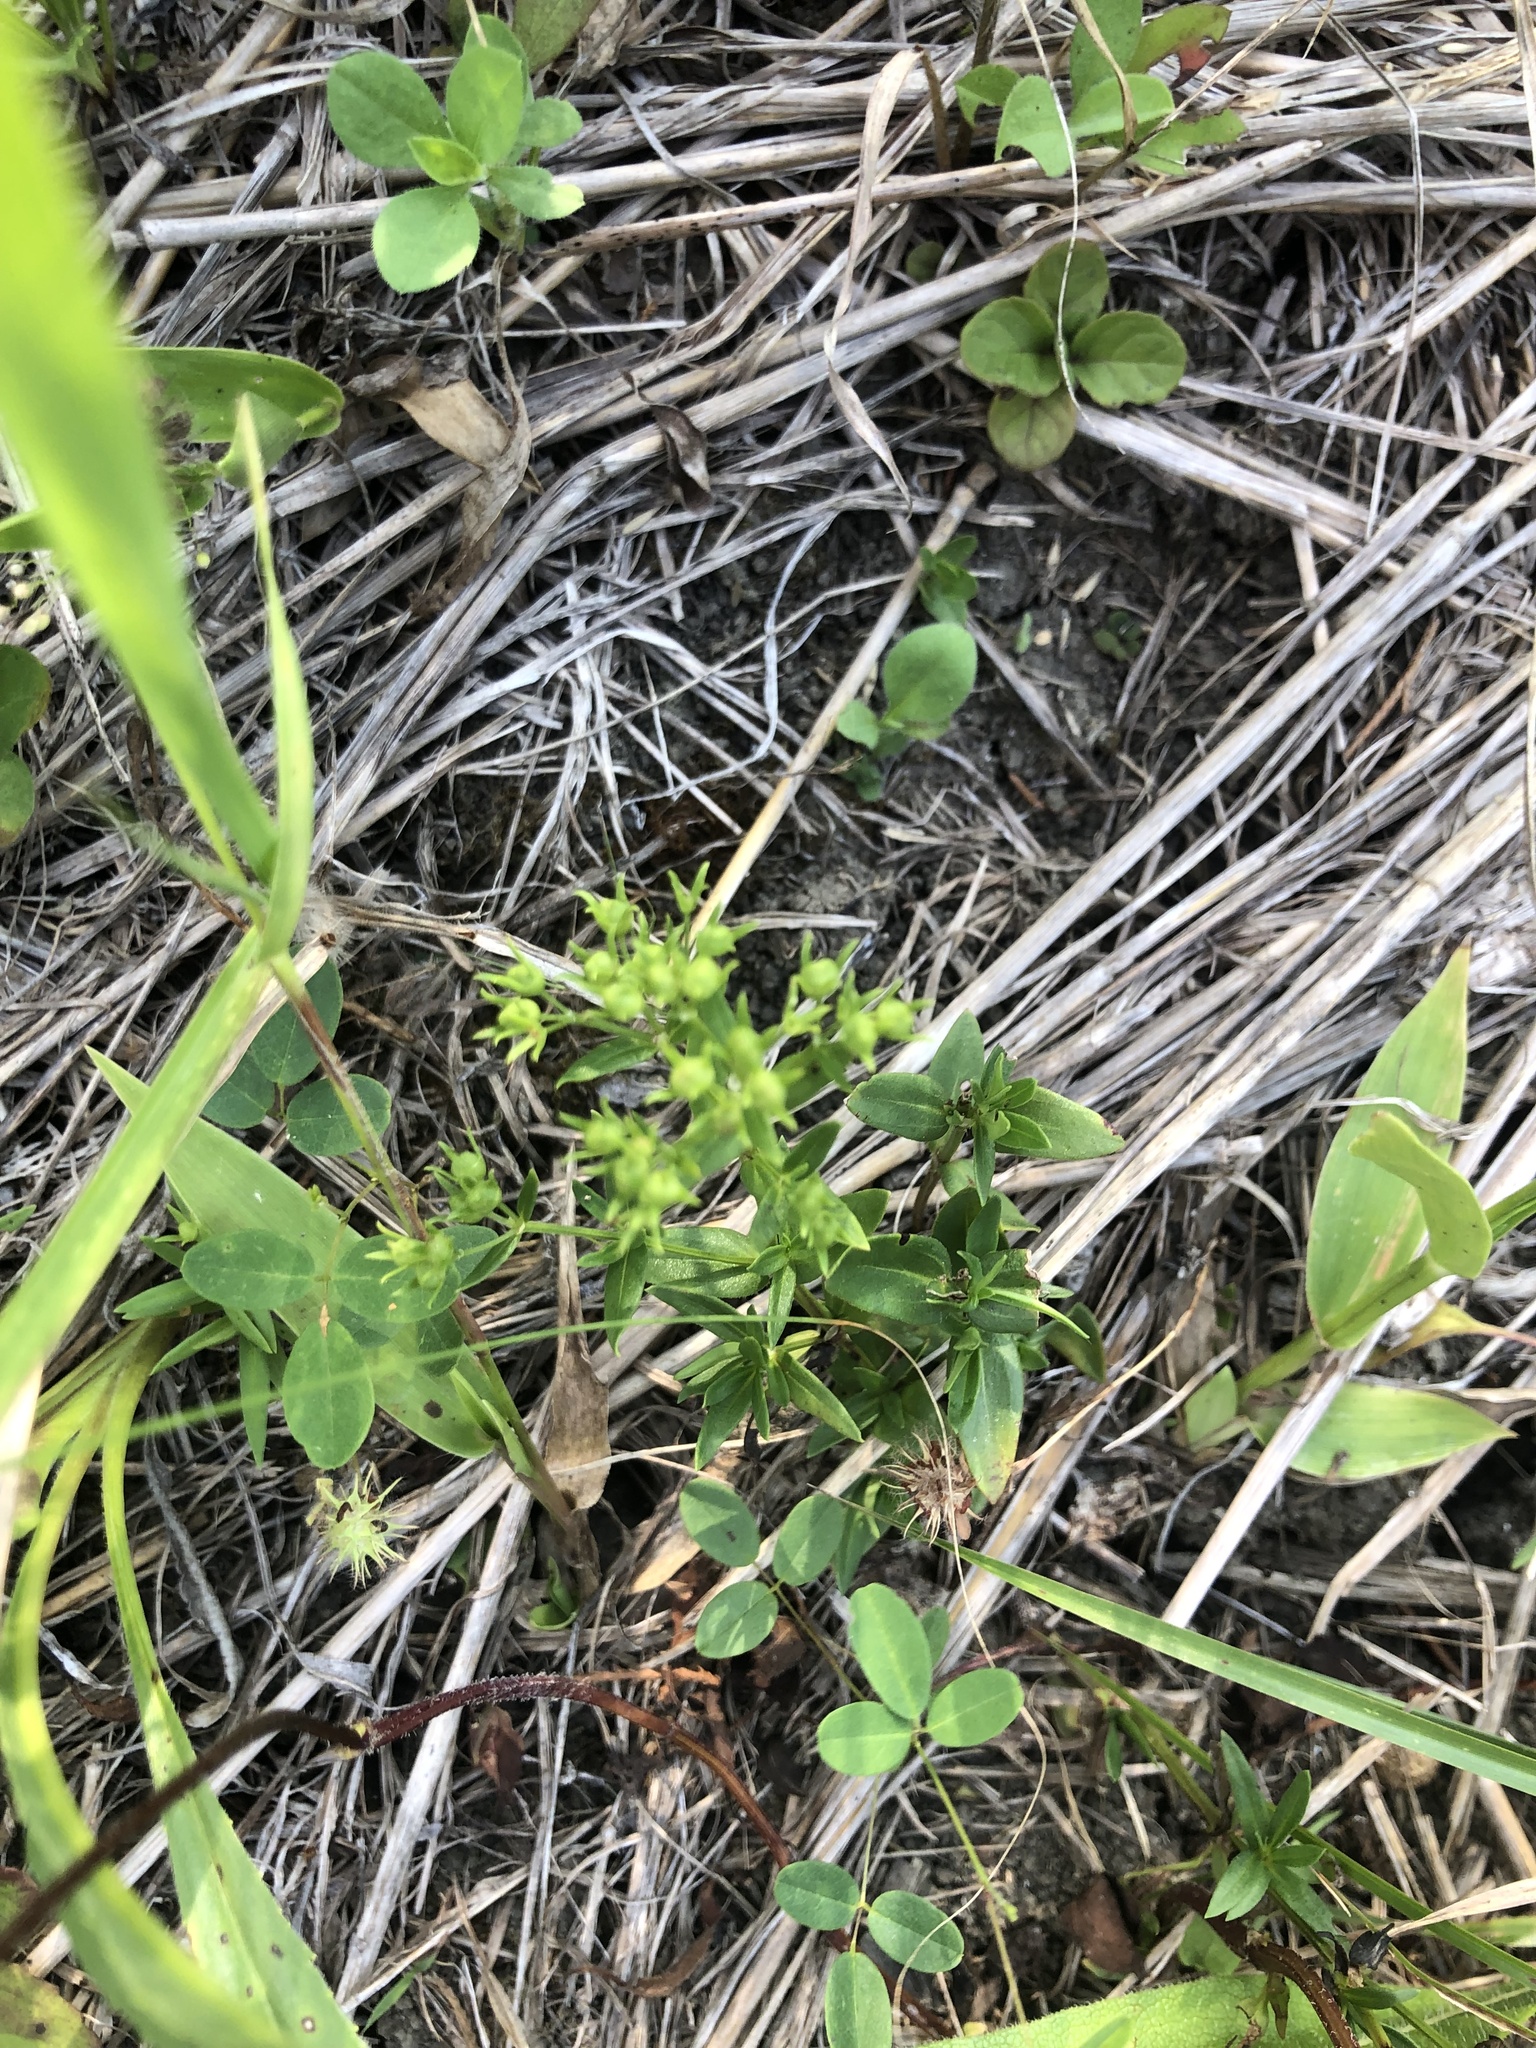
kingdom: Plantae
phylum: Tracheophyta
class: Magnoliopsida
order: Gentianales
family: Rubiaceae
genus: Houstonia
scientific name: Houstonia purpurea
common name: Summer bluet
